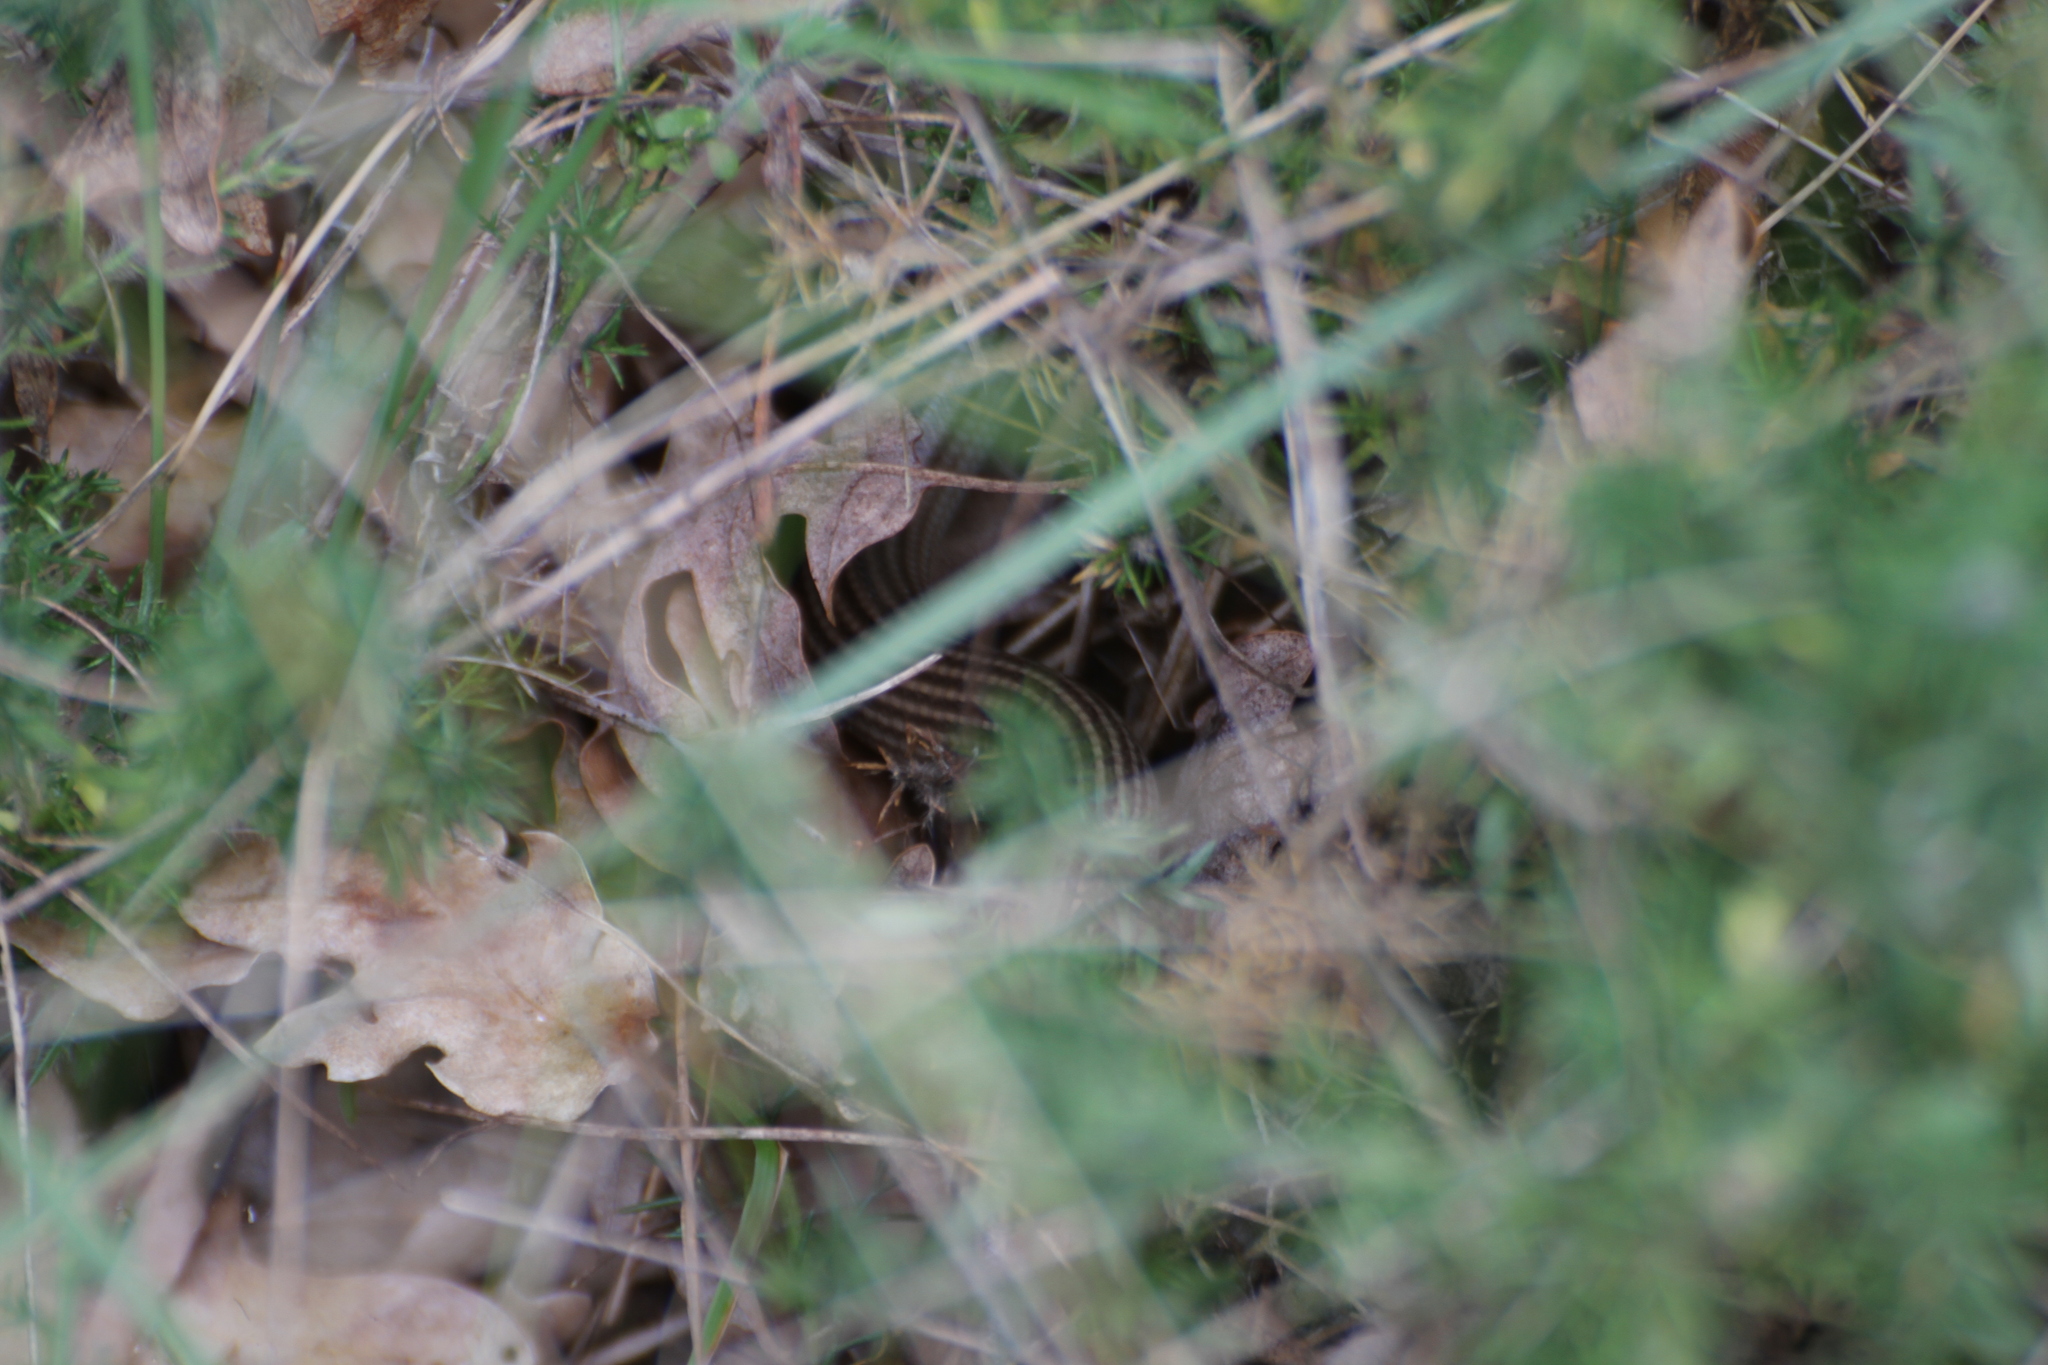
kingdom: Animalia
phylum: Chordata
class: Squamata
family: Scincidae
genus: Chalcides
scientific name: Chalcides striatus
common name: Western (or iberian) three-toed skink
